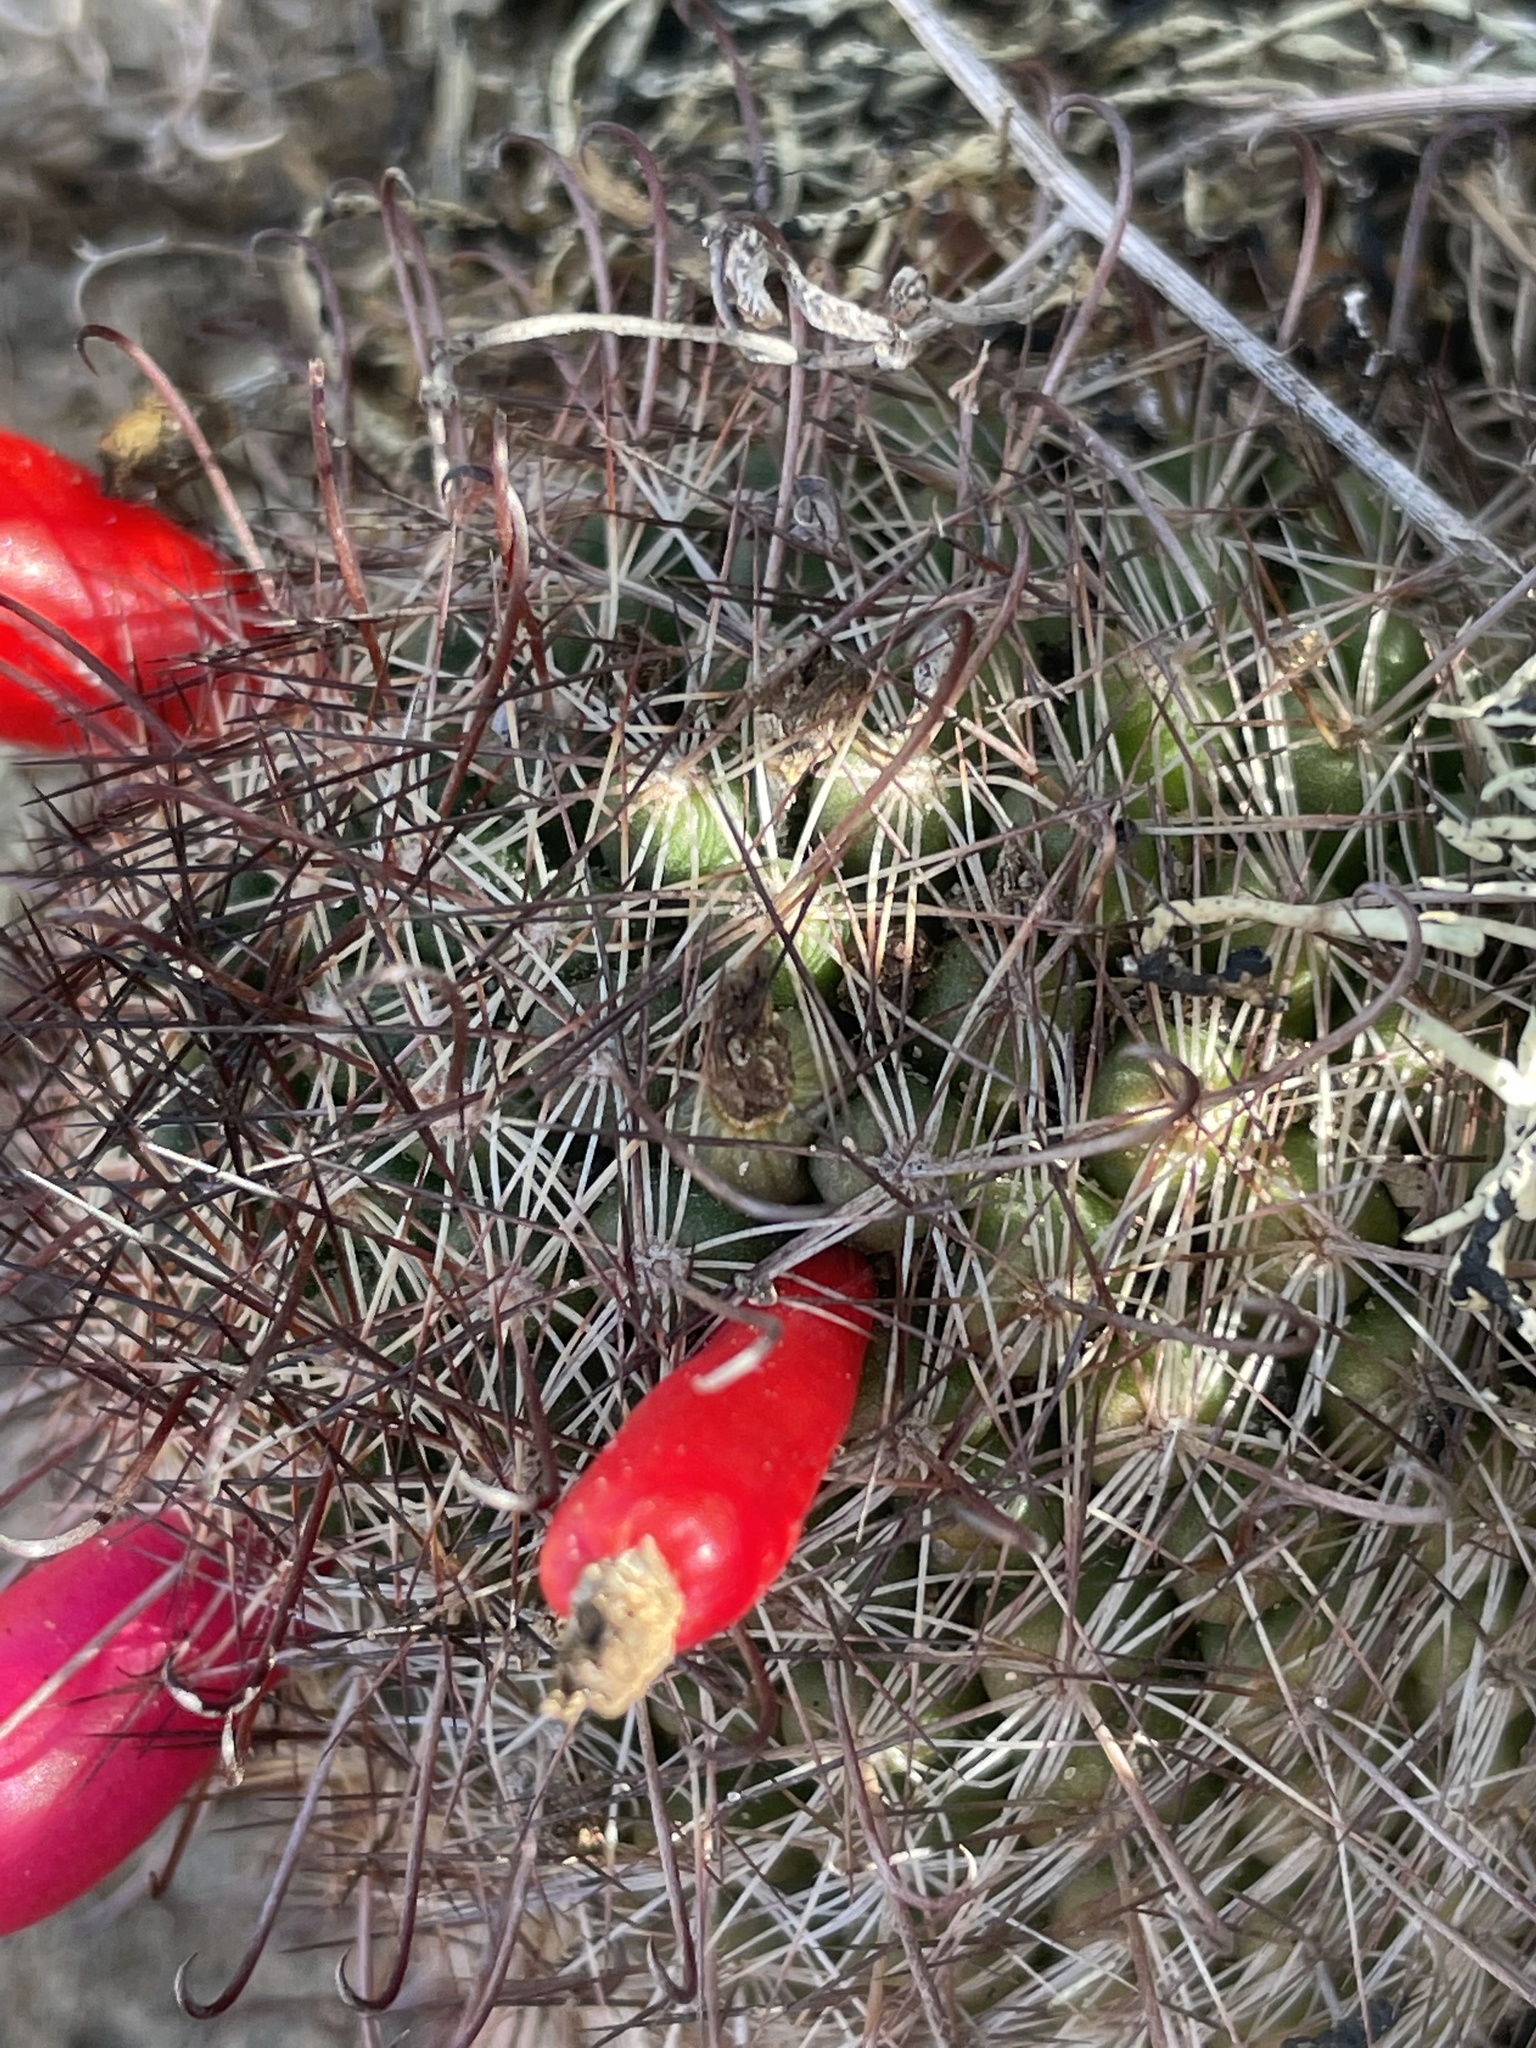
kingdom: Plantae
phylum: Tracheophyta
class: Magnoliopsida
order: Caryophyllales
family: Cactaceae
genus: Cochemiea
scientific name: Cochemiea hutchisoniana
